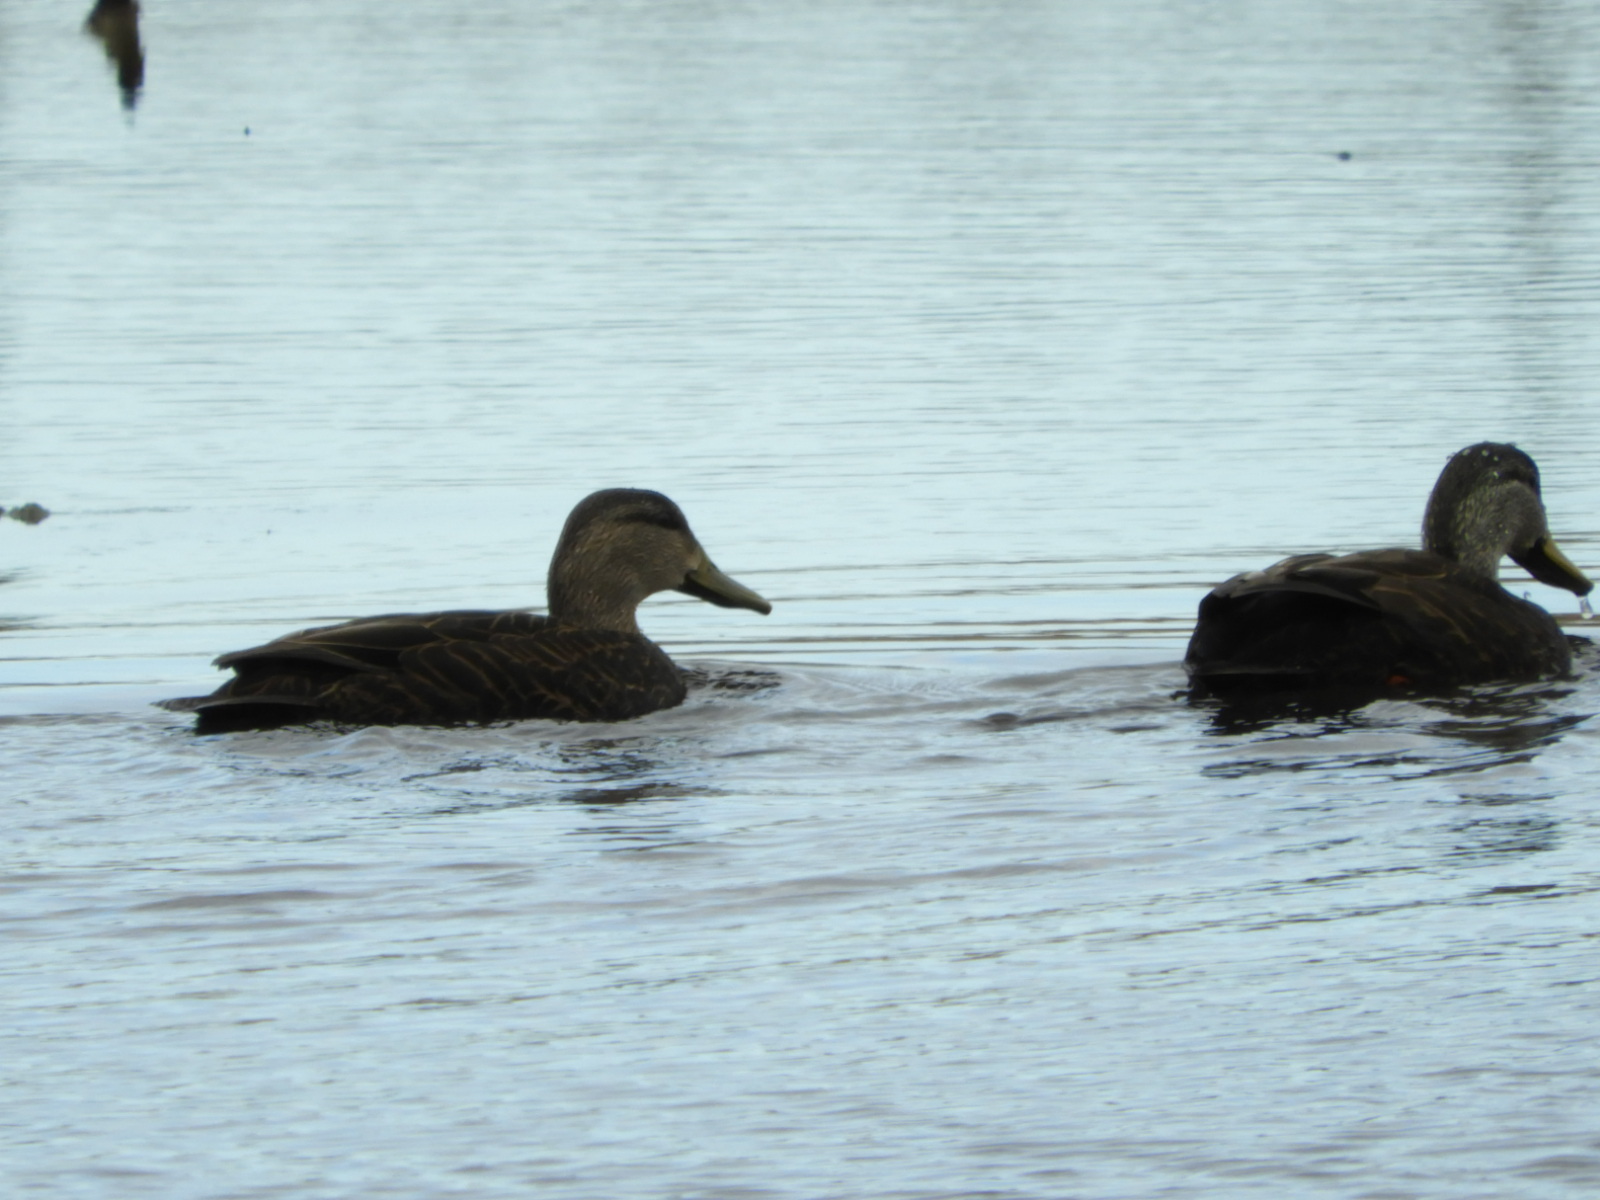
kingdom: Animalia
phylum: Chordata
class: Aves
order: Anseriformes
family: Anatidae
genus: Anas
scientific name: Anas rubripes
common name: American black duck
